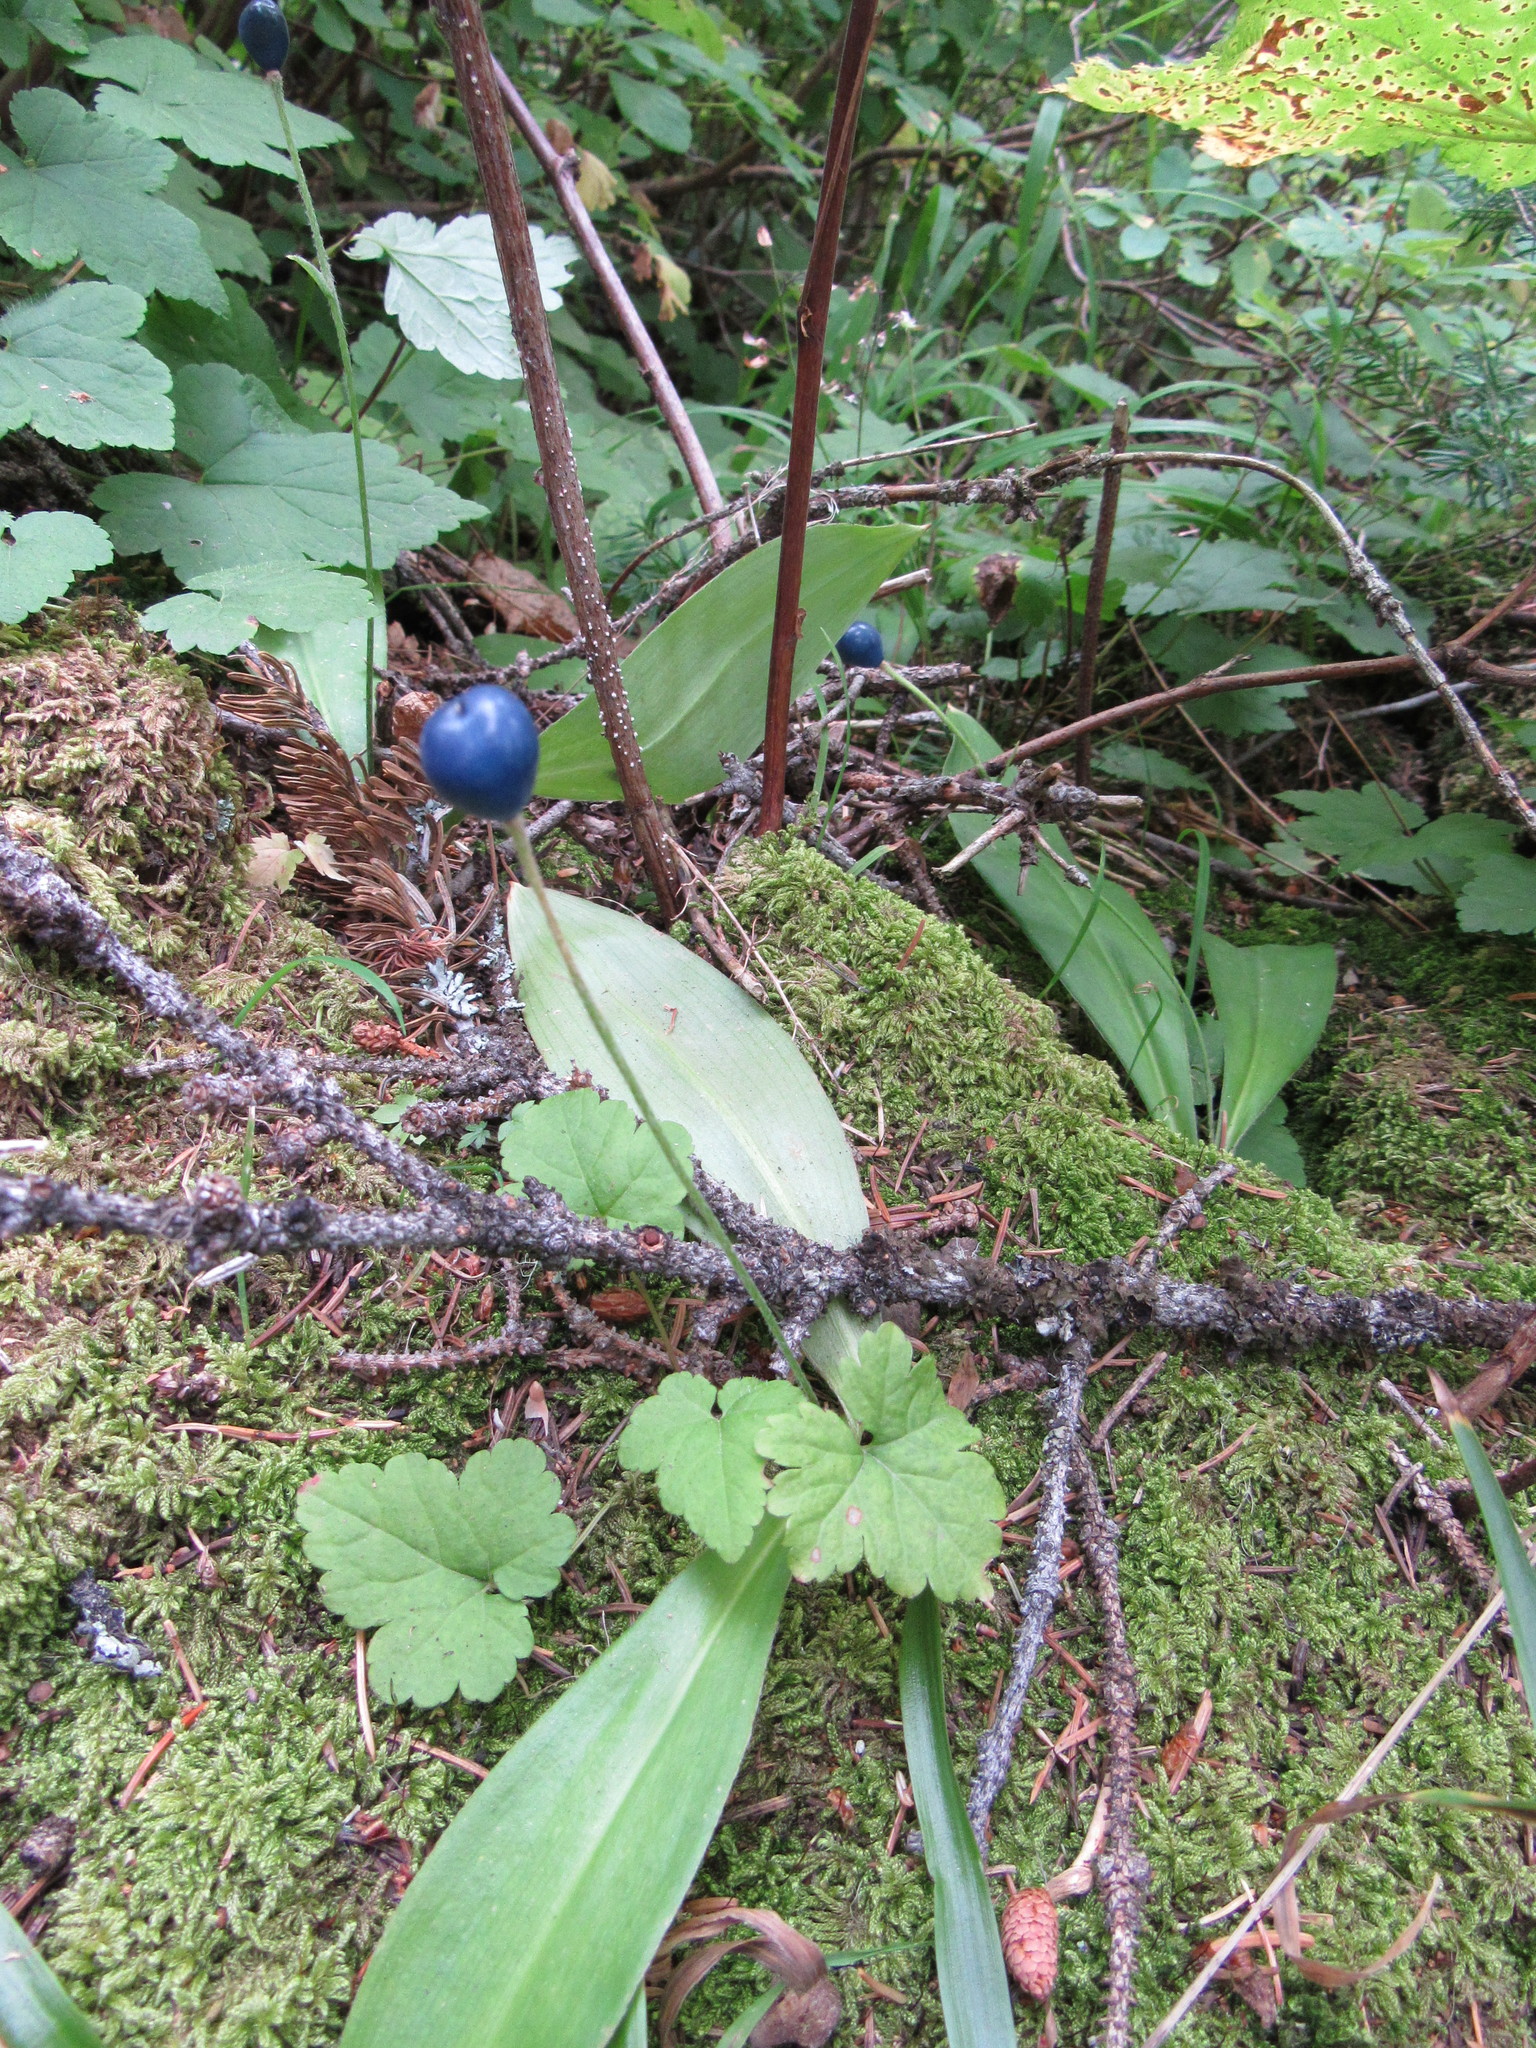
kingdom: Plantae
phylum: Tracheophyta
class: Liliopsida
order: Liliales
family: Liliaceae
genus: Clintonia
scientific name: Clintonia uniflora
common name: Queen's cup
